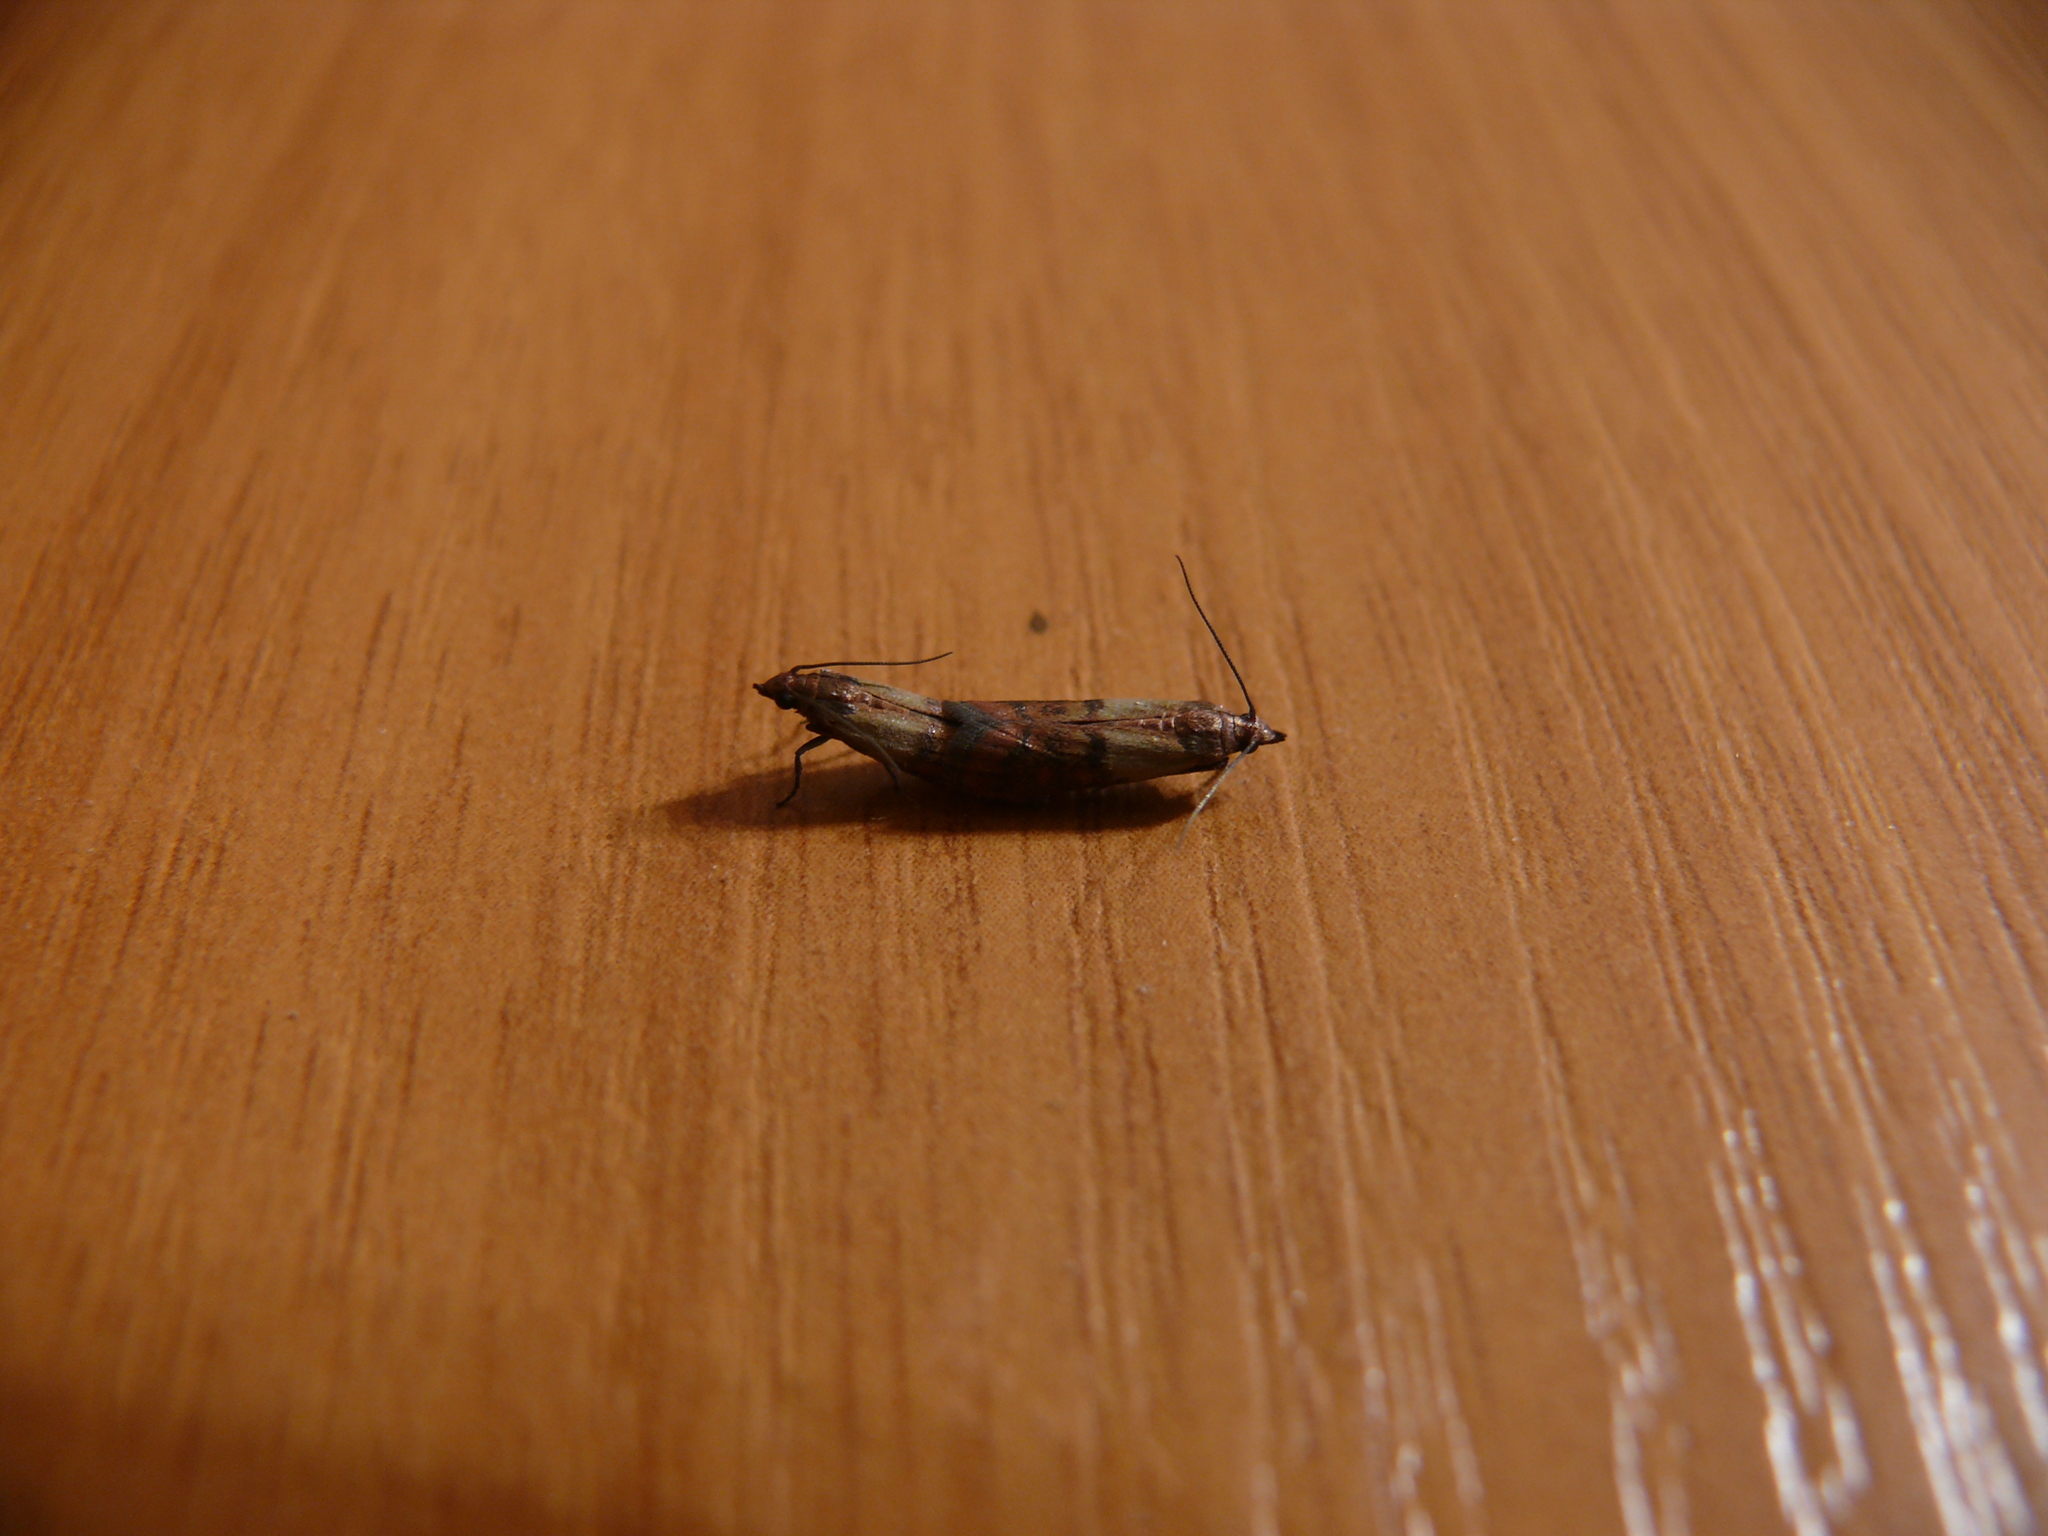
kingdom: Animalia
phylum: Arthropoda
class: Insecta
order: Lepidoptera
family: Pyralidae
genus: Plodia
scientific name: Plodia interpunctella
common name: Indian meal moth
